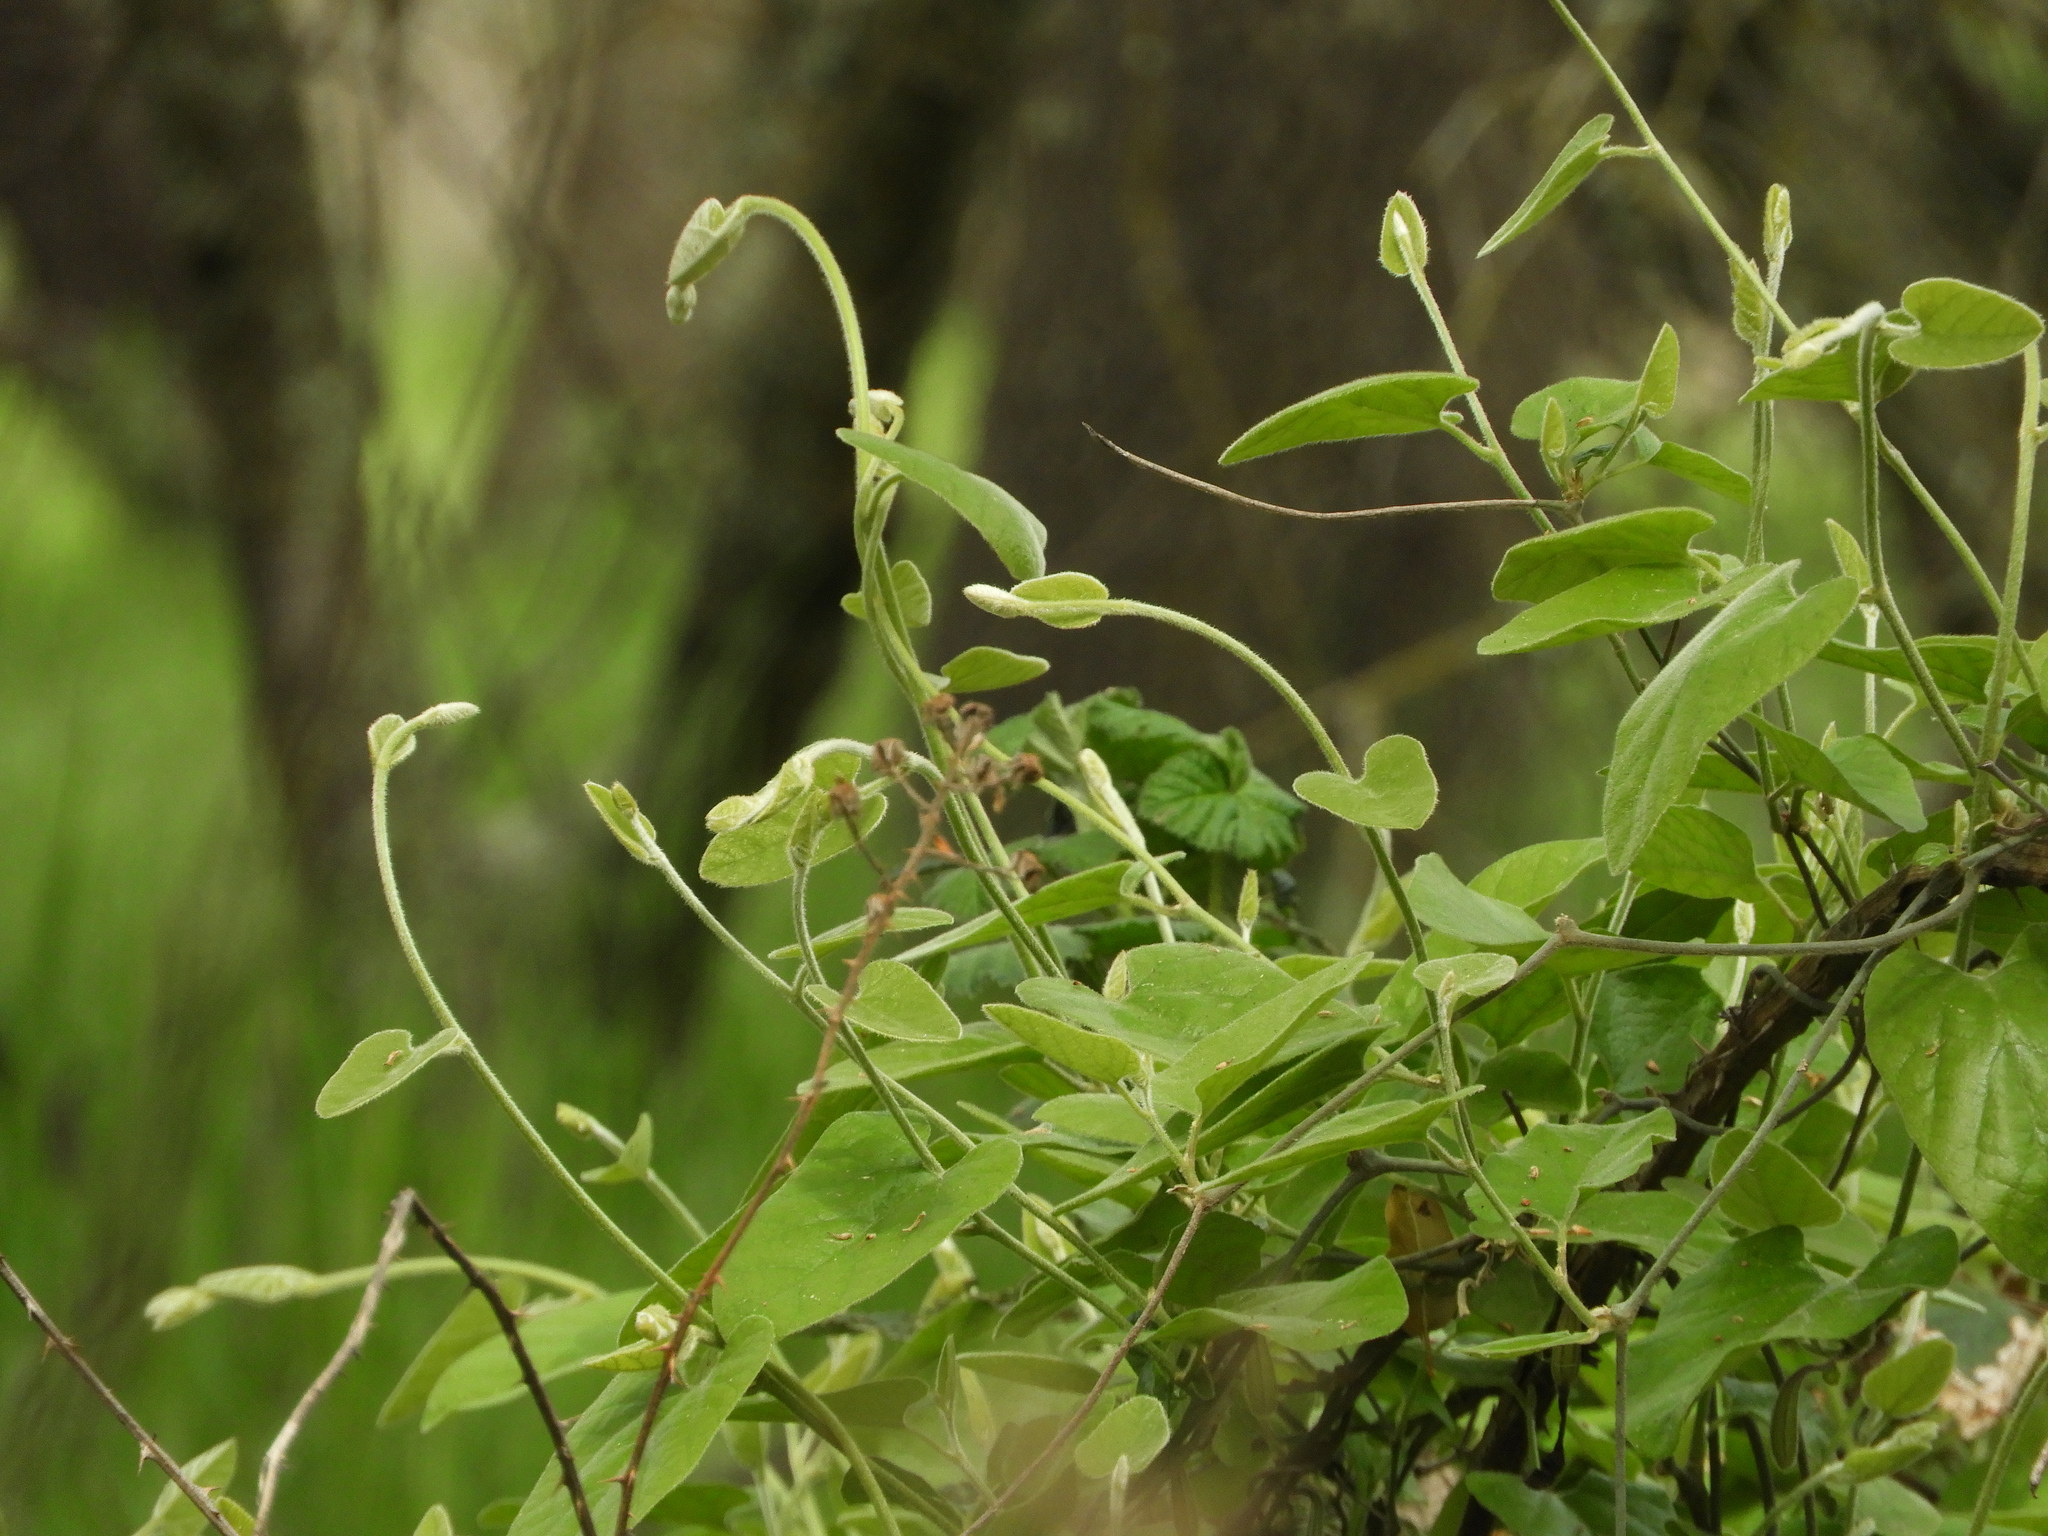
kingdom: Plantae
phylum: Tracheophyta
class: Magnoliopsida
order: Piperales
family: Aristolochiaceae
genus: Isotrema
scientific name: Isotrema californicum
